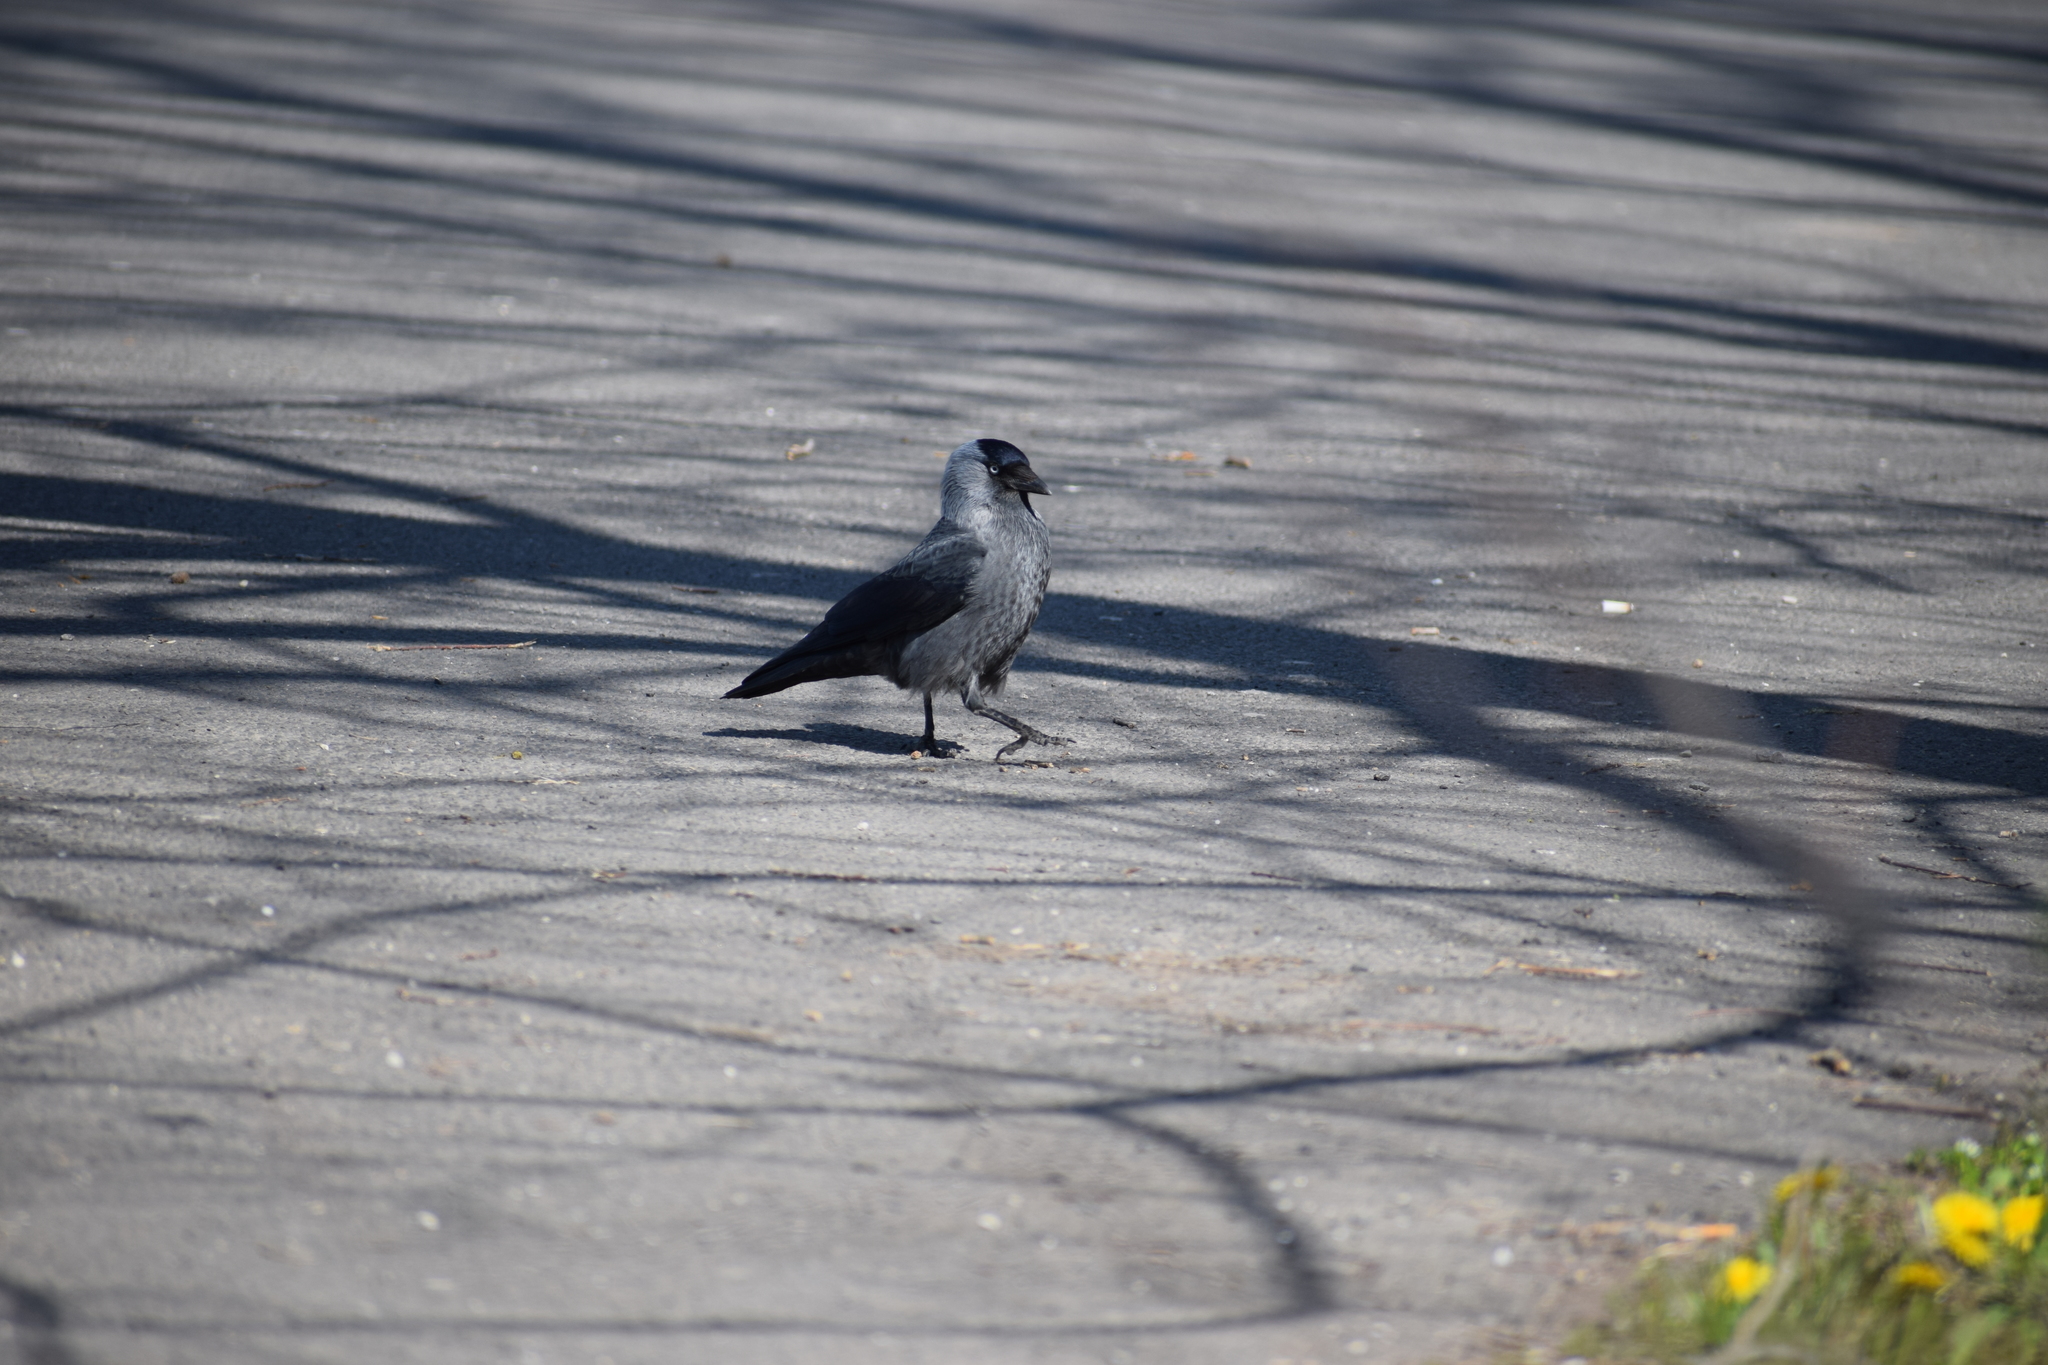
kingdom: Animalia
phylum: Chordata
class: Aves
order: Passeriformes
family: Corvidae
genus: Coloeus
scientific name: Coloeus monedula
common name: Western jackdaw
